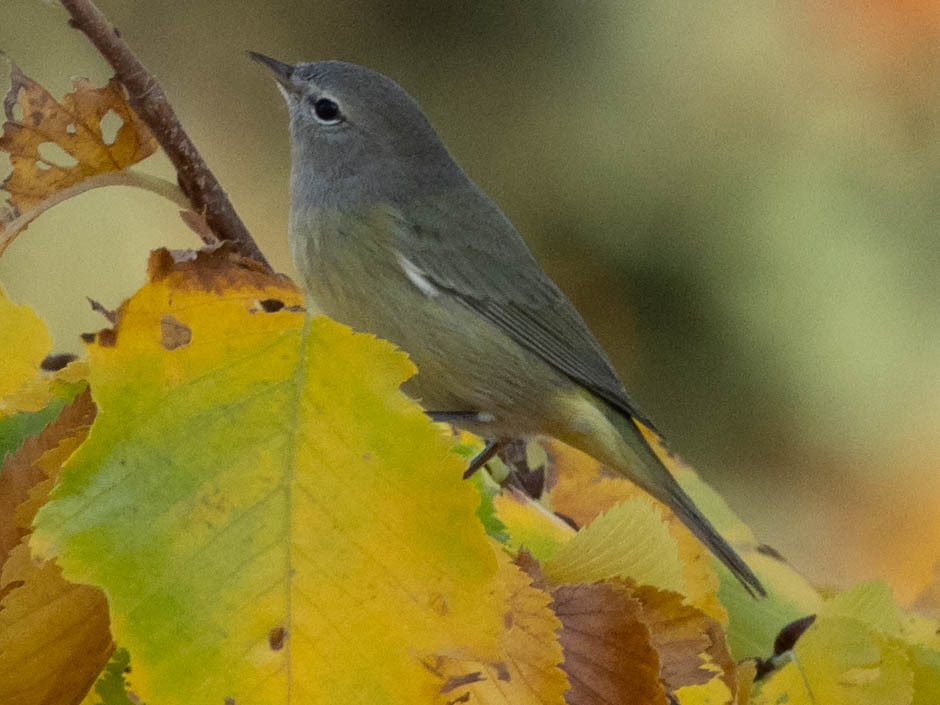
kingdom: Animalia
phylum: Chordata
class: Aves
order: Passeriformes
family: Parulidae
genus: Leiothlypis
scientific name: Leiothlypis celata
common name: Orange-crowned warbler
